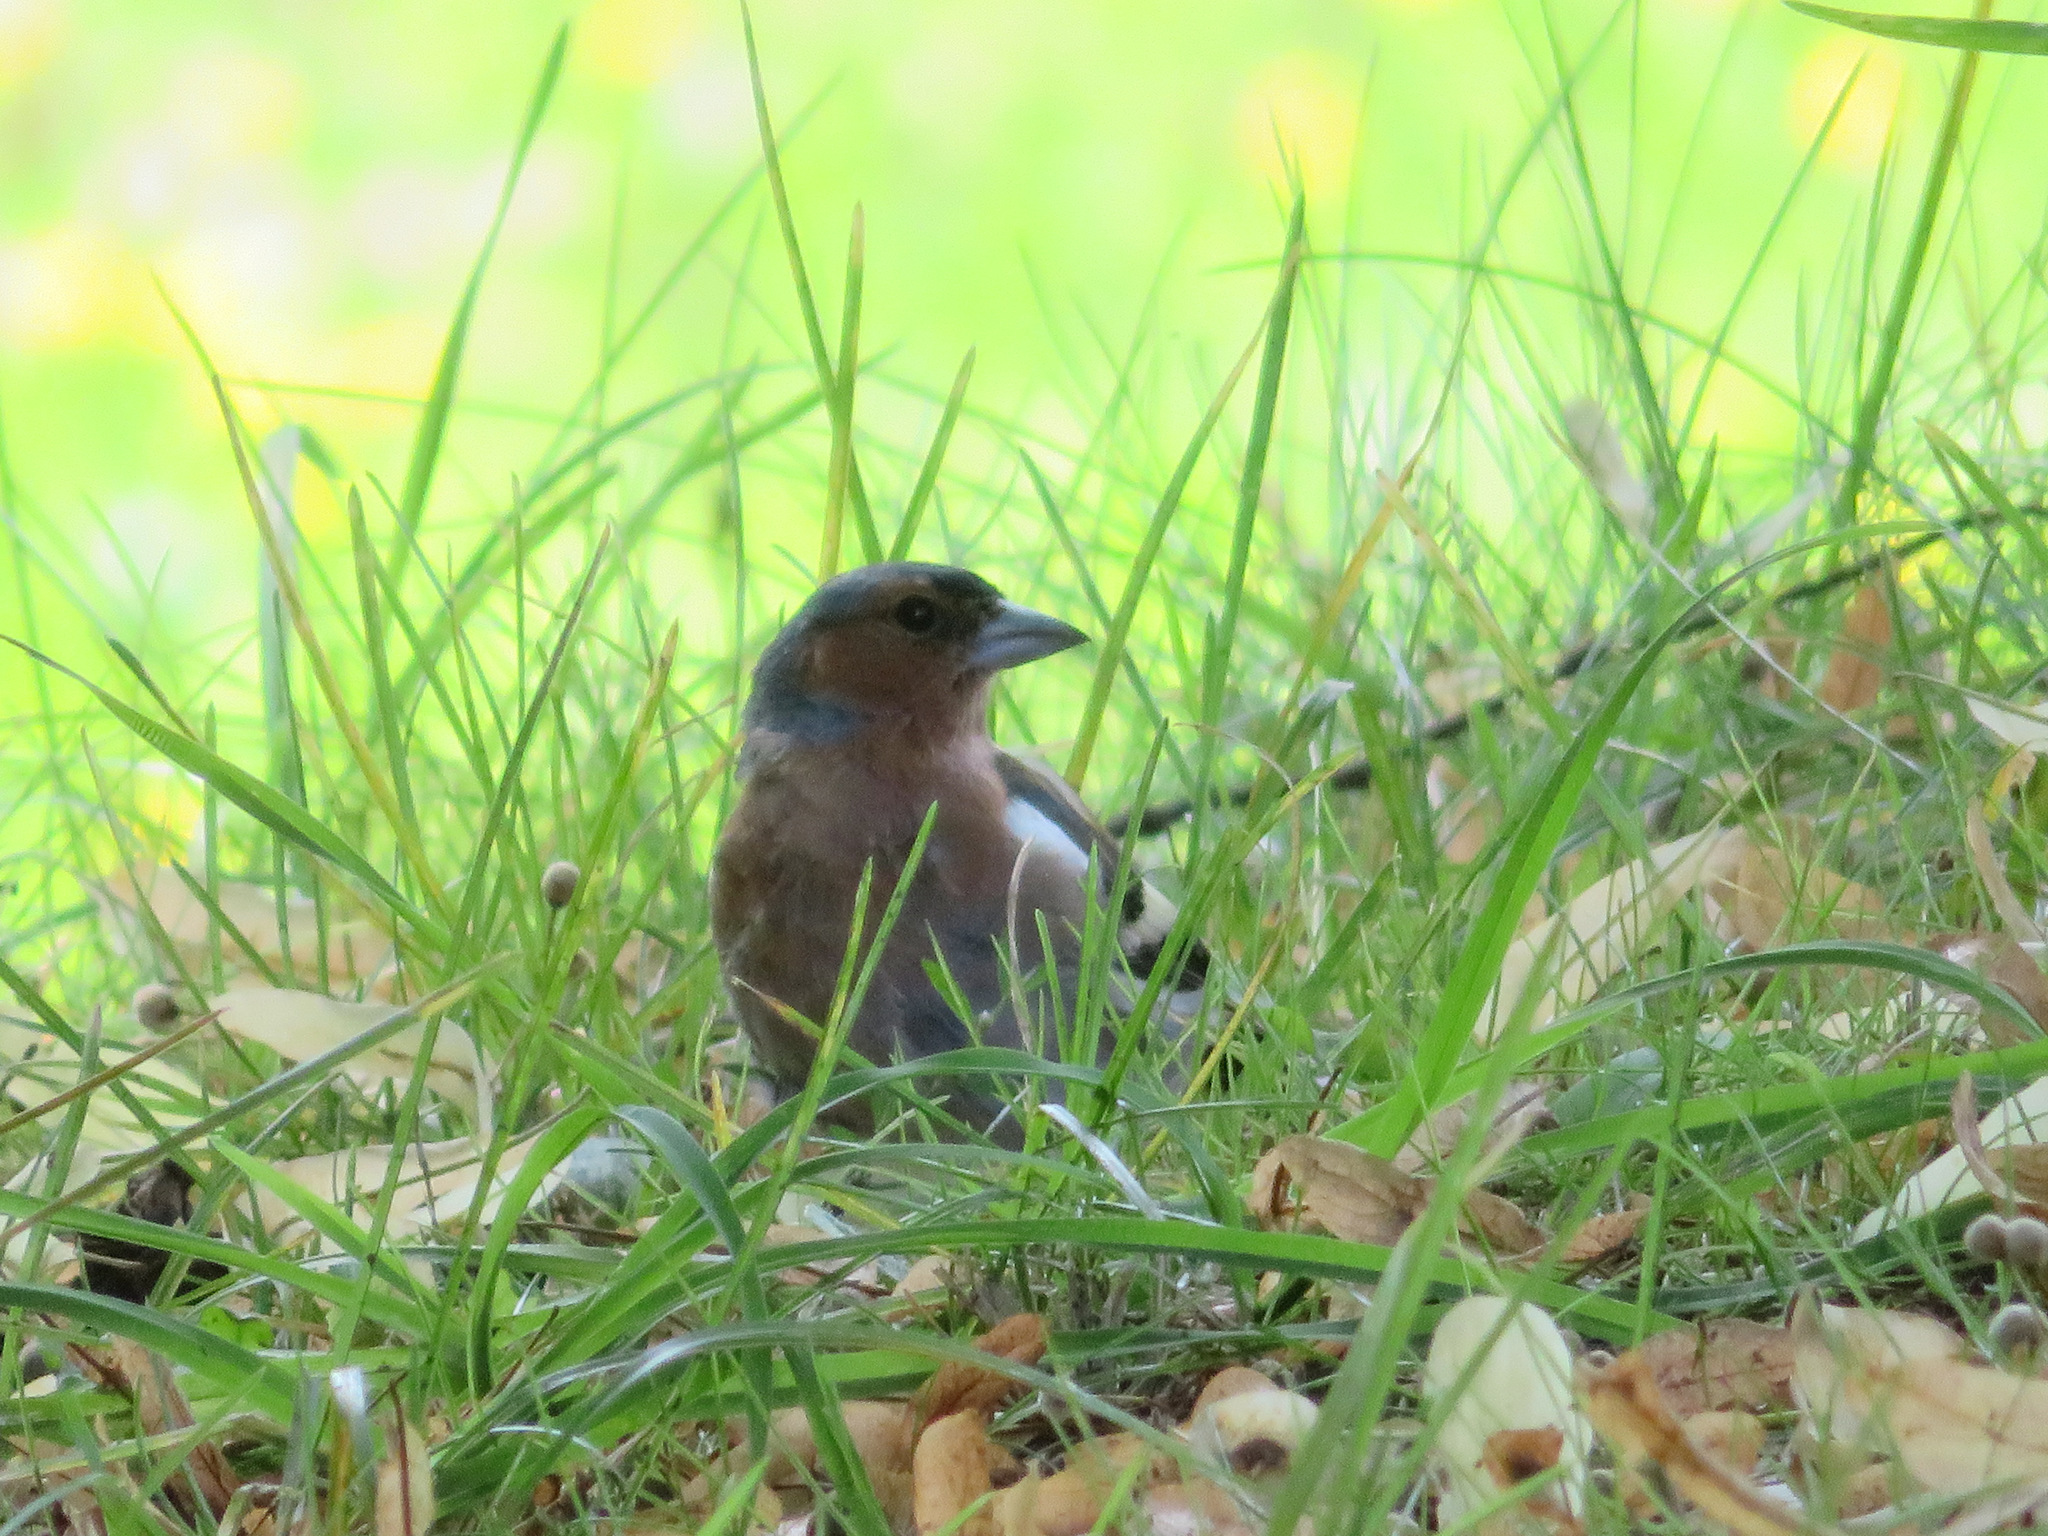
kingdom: Animalia
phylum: Chordata
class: Aves
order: Passeriformes
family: Fringillidae
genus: Fringilla
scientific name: Fringilla coelebs
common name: Common chaffinch
